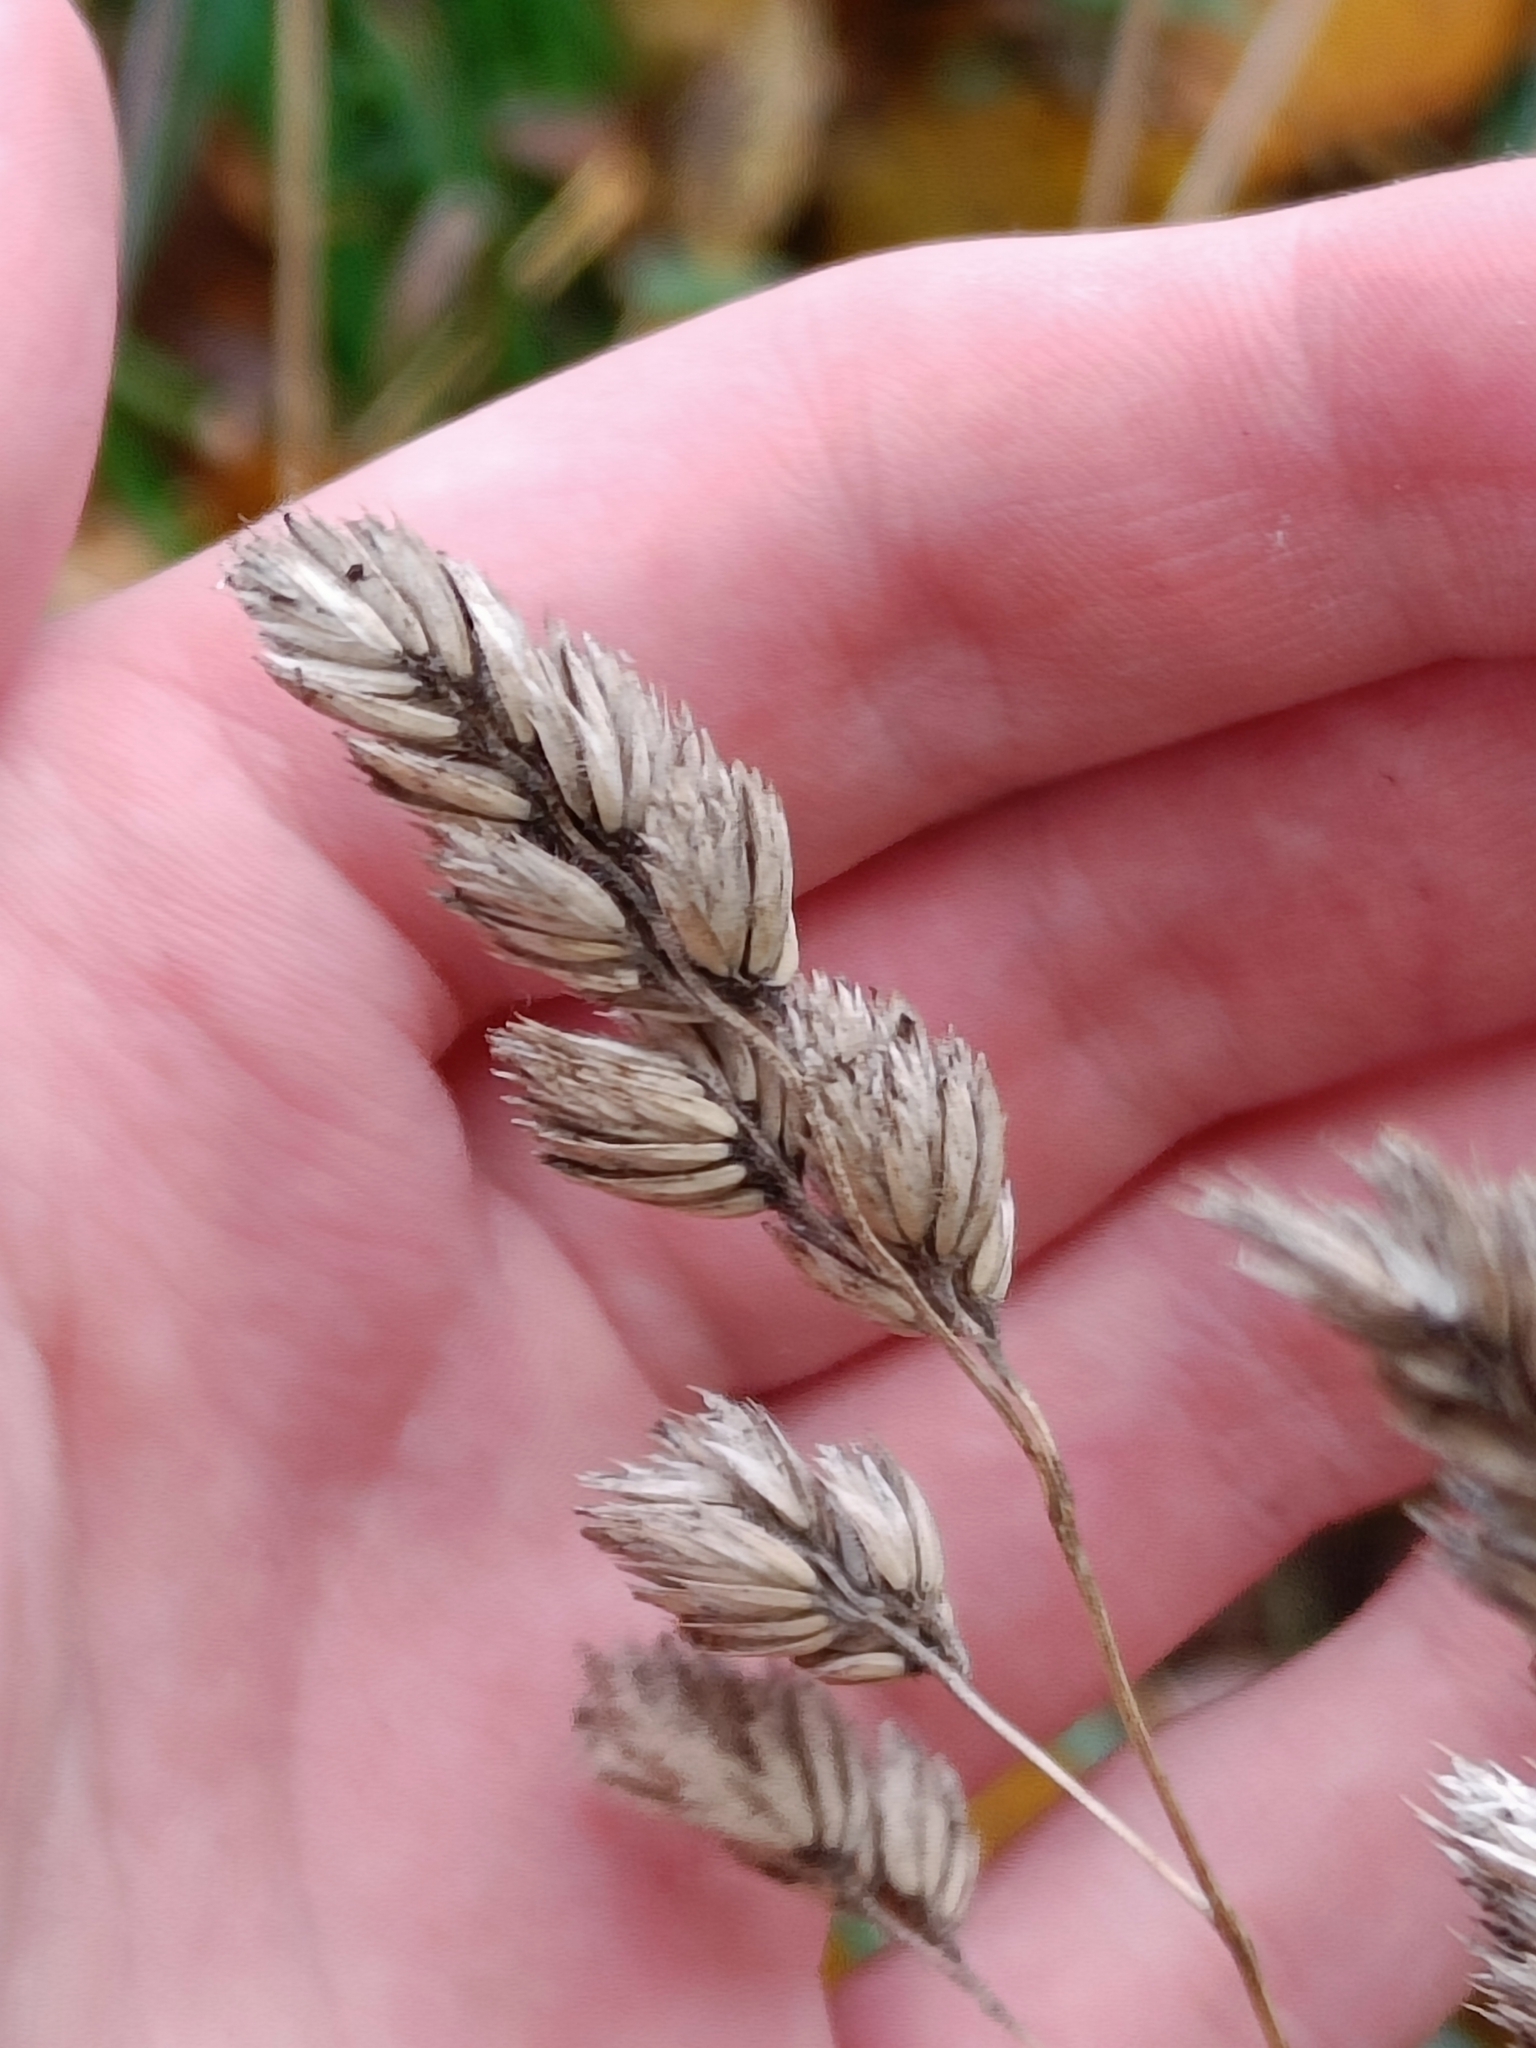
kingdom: Plantae
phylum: Tracheophyta
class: Liliopsida
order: Poales
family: Poaceae
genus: Dactylis
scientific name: Dactylis glomerata
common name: Orchardgrass
